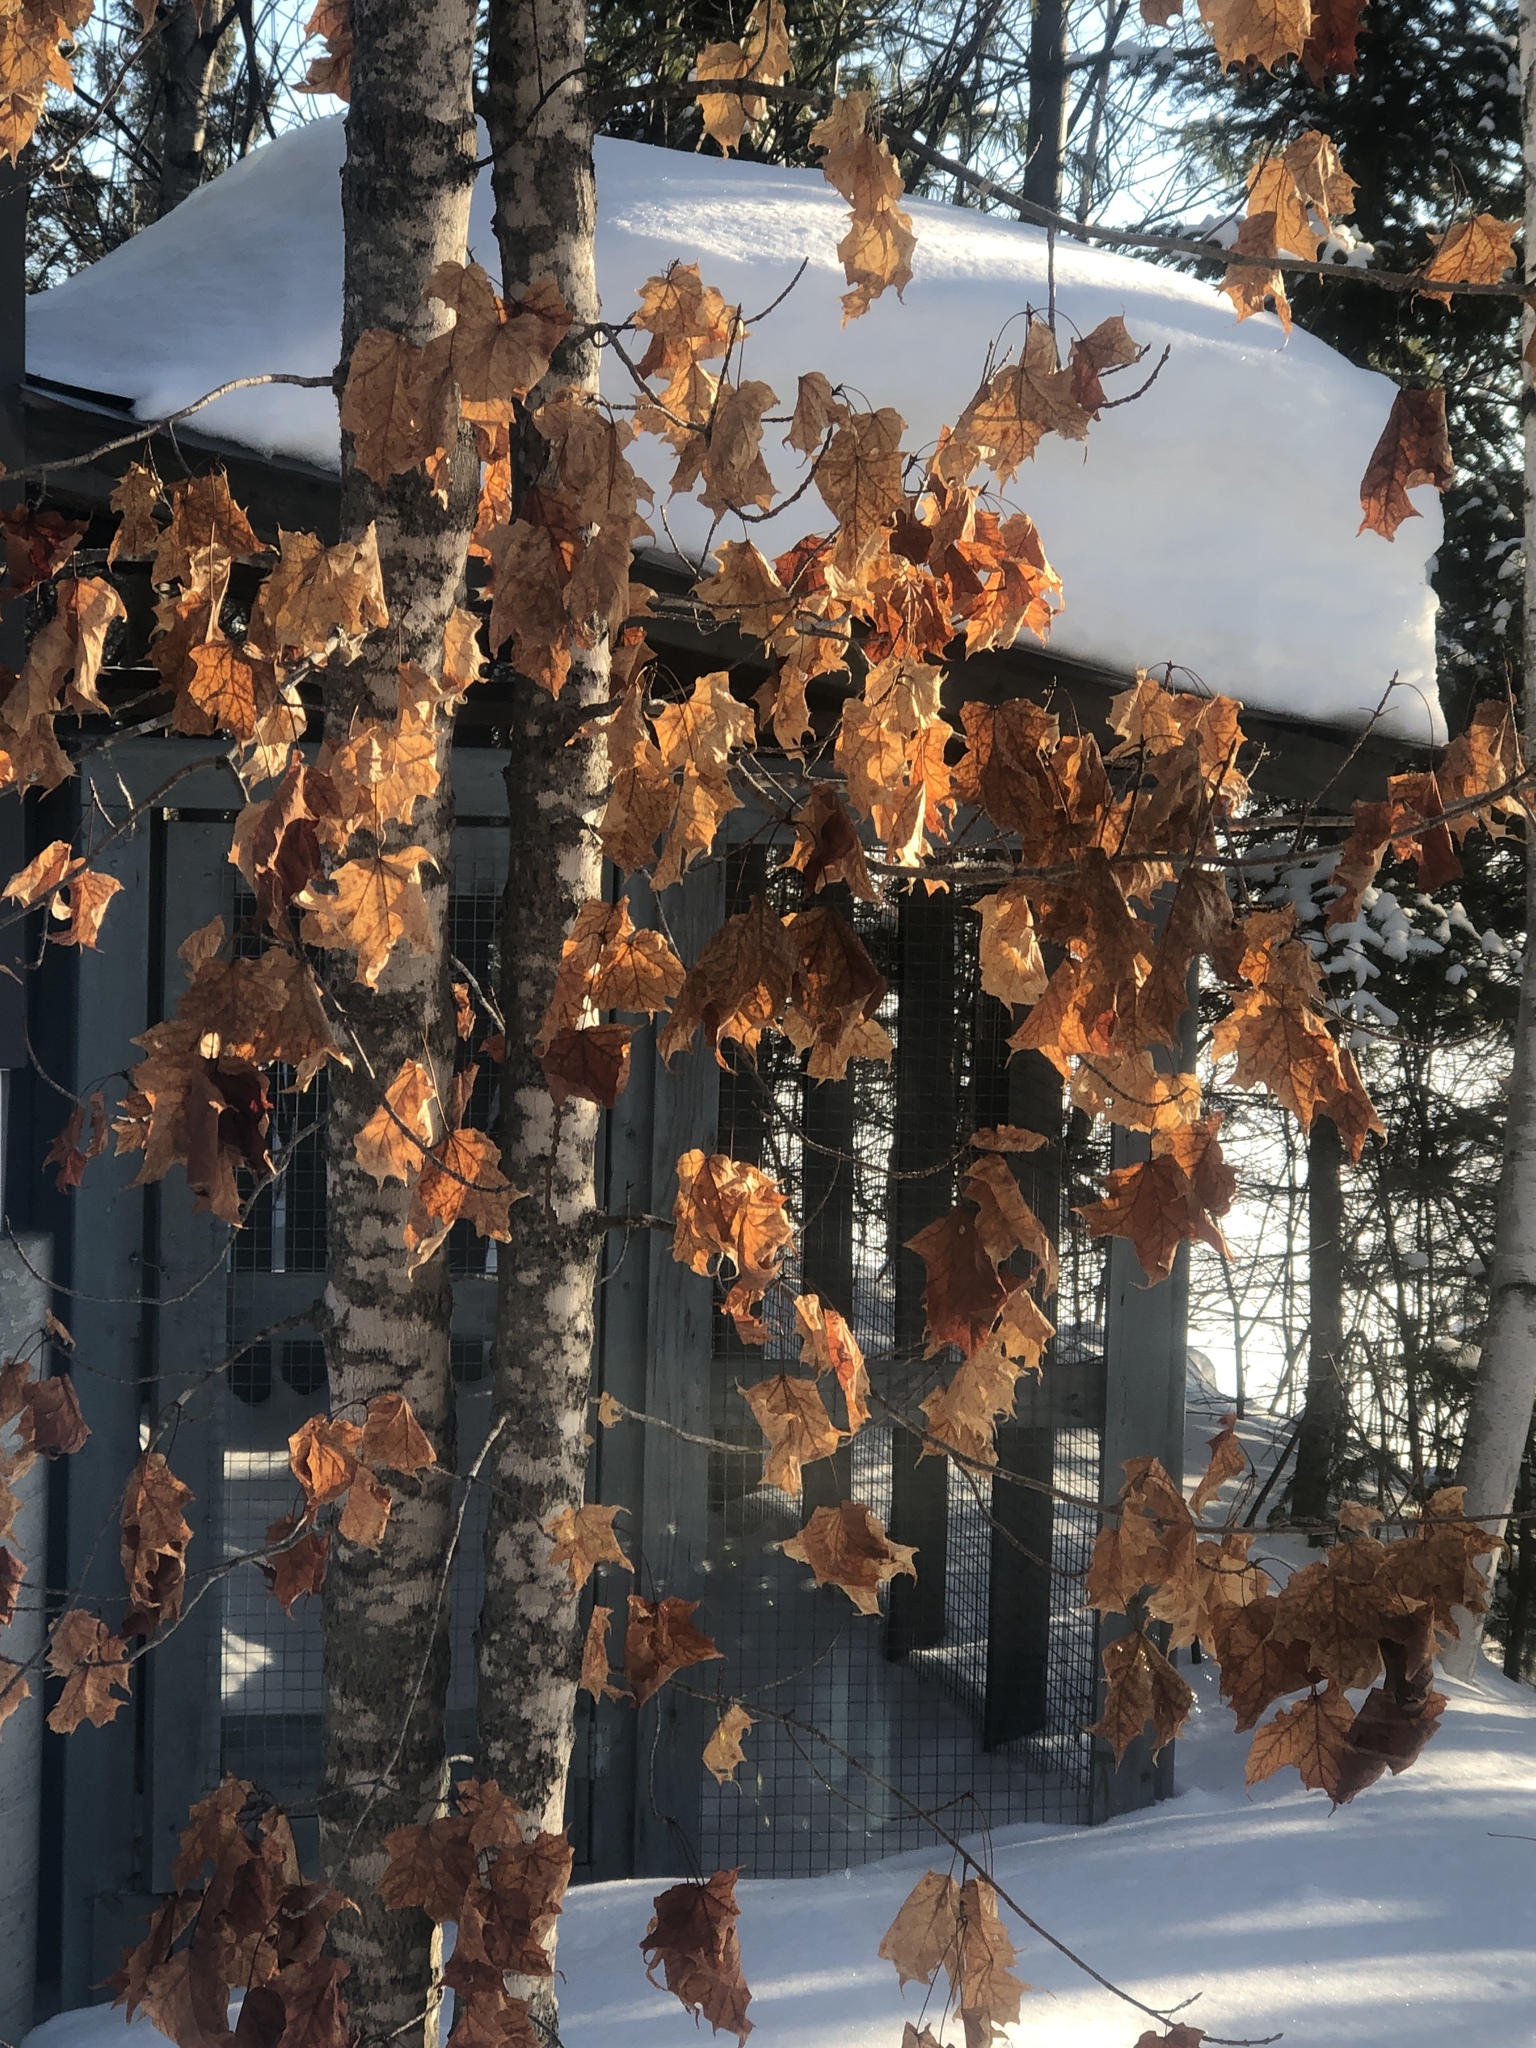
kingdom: Plantae
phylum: Tracheophyta
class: Magnoliopsida
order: Sapindales
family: Sapindaceae
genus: Acer
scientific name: Acer saccharum
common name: Sugar maple
